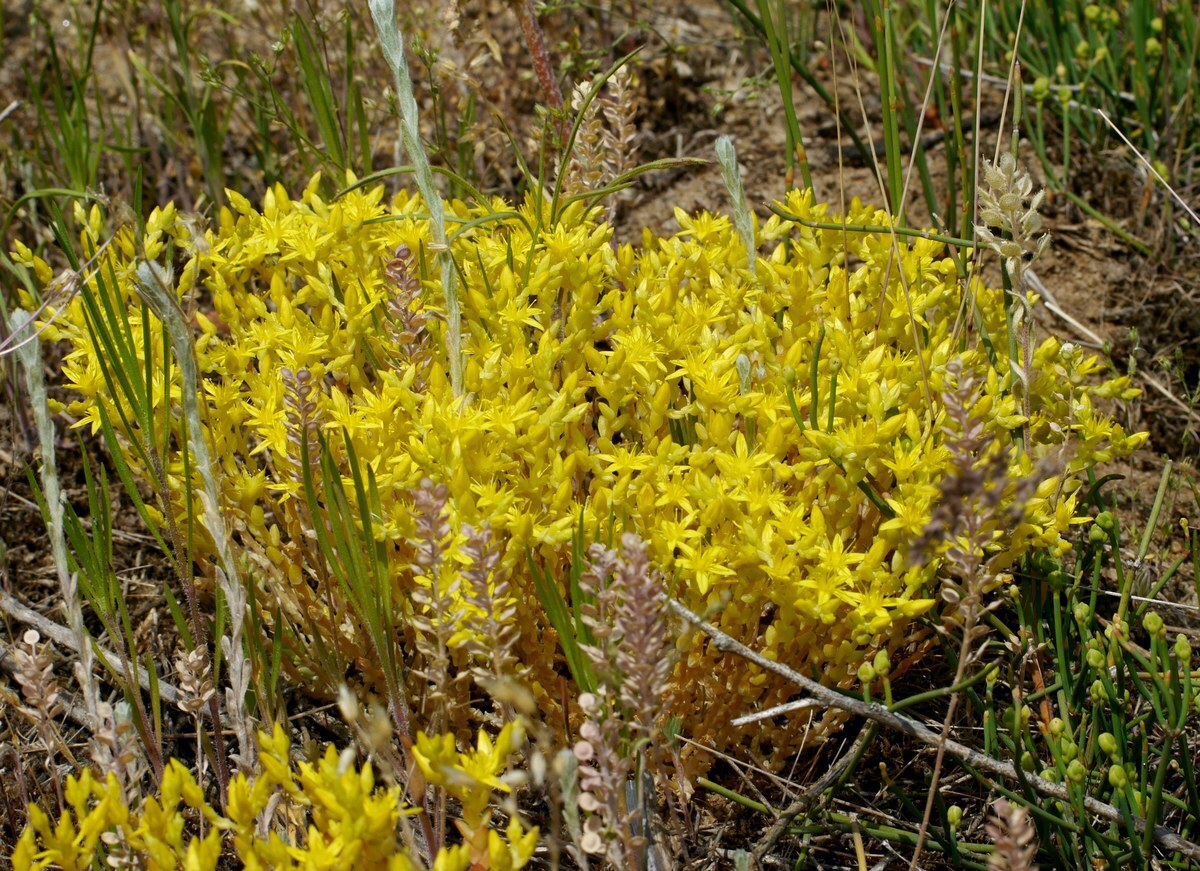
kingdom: Plantae
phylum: Tracheophyta
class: Magnoliopsida
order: Saxifragales
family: Crassulaceae
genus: Sedum
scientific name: Sedum acre
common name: Biting stonecrop
